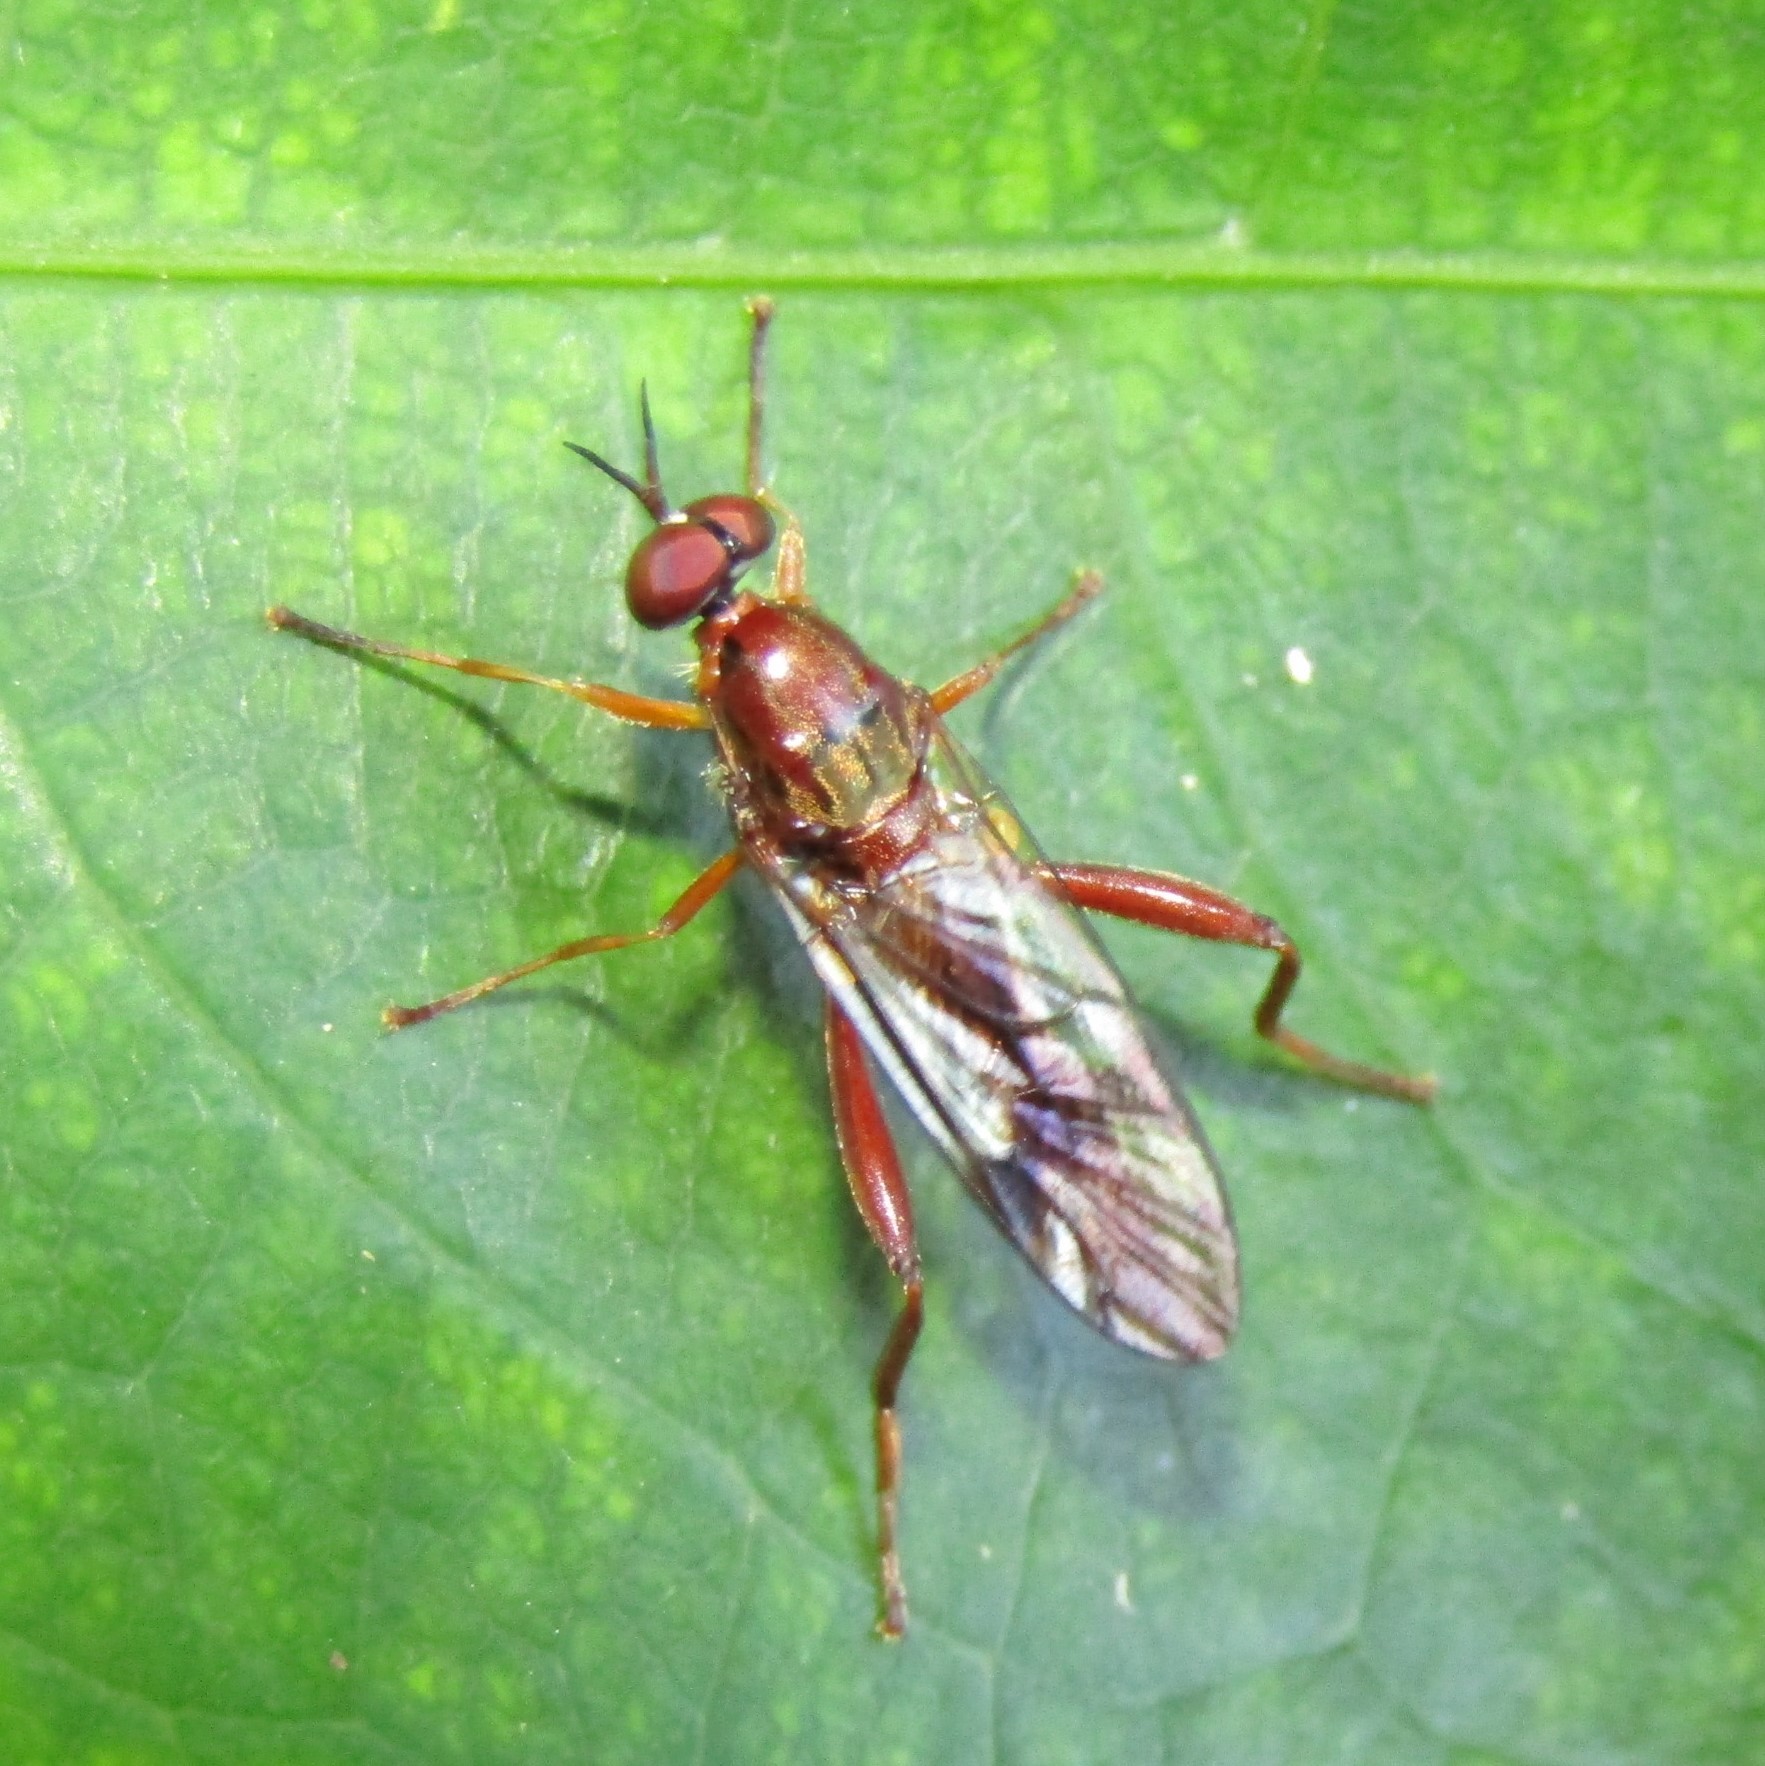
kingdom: Animalia
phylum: Arthropoda
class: Insecta
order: Diptera
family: Stratiomyidae
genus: Benhamyia
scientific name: Benhamyia straznitzkii
